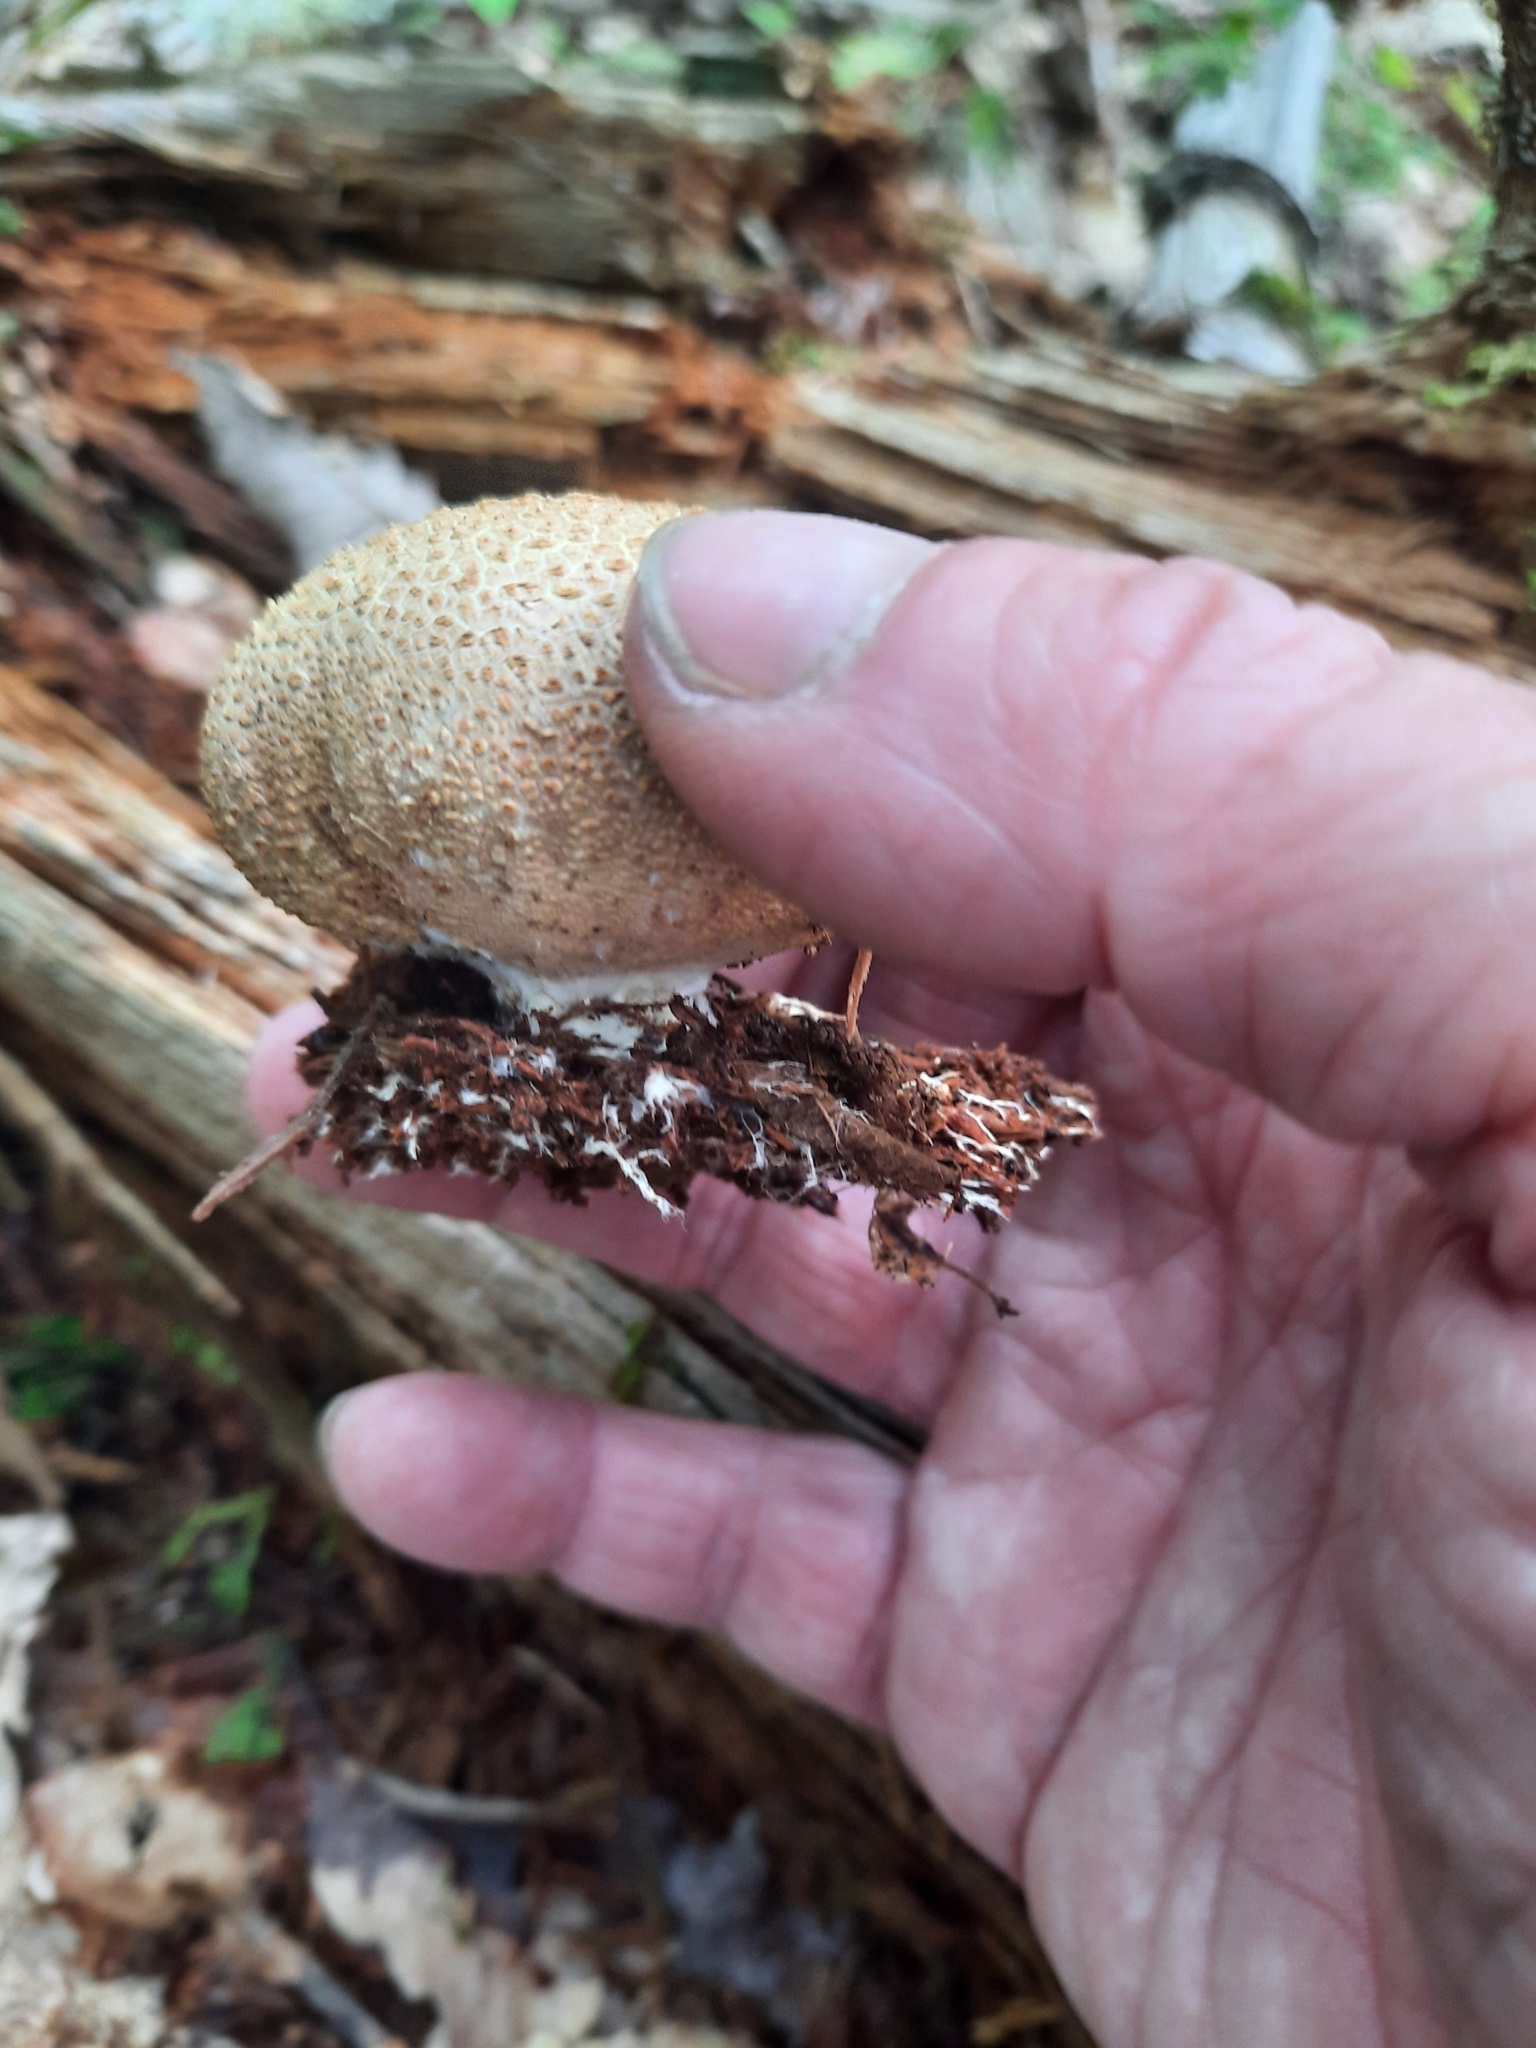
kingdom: Fungi
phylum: Basidiomycota
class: Agaricomycetes
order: Boletales
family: Sclerodermataceae
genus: Scleroderma
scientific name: Scleroderma citrinum
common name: Common earthball
